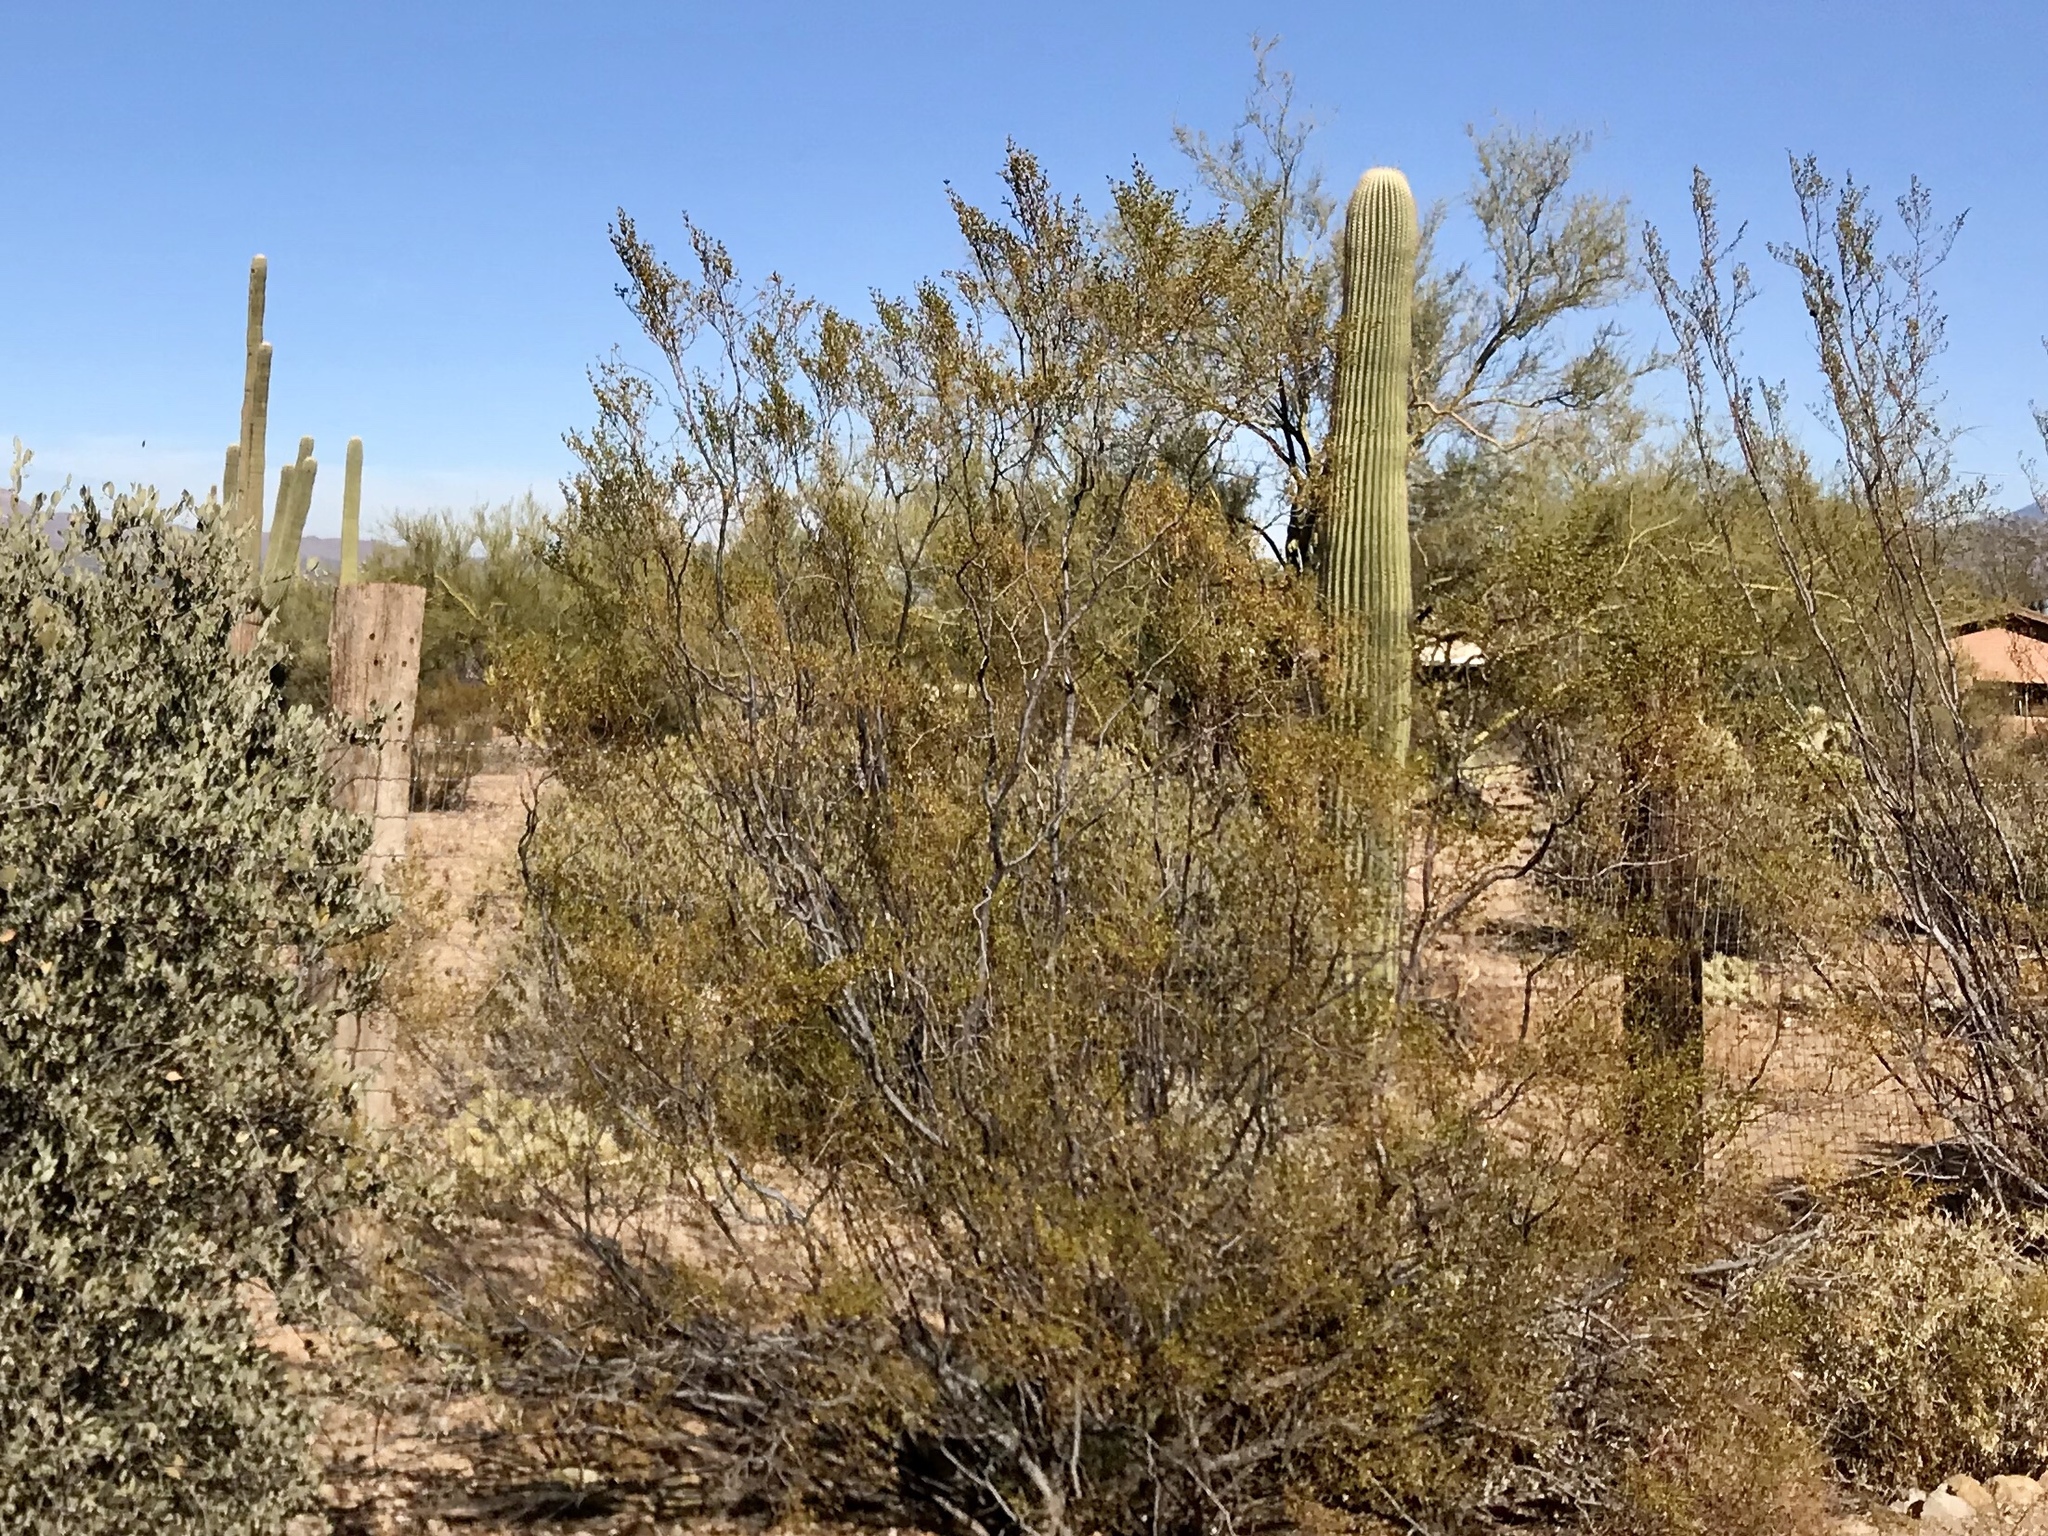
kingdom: Plantae
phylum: Tracheophyta
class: Magnoliopsida
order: Zygophyllales
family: Zygophyllaceae
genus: Larrea
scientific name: Larrea tridentata
